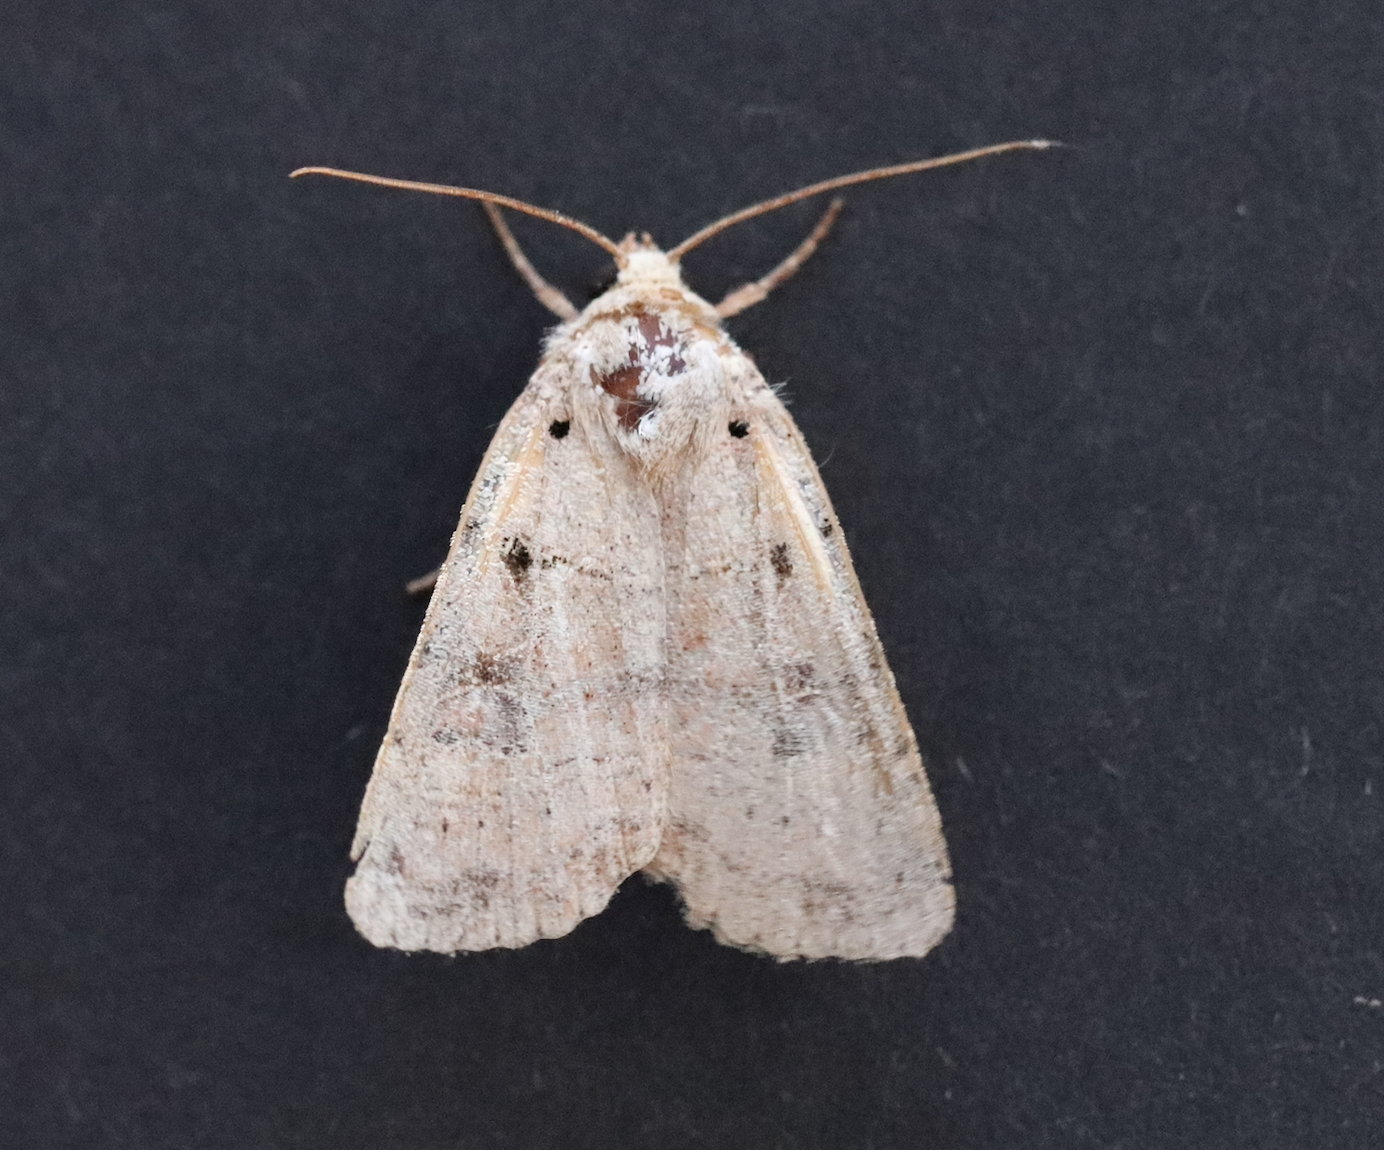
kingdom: Animalia
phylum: Arthropoda
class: Insecta
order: Lepidoptera
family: Noctuidae
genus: Eugnorisma
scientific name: Eugnorisma depuncta
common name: Plain clay
